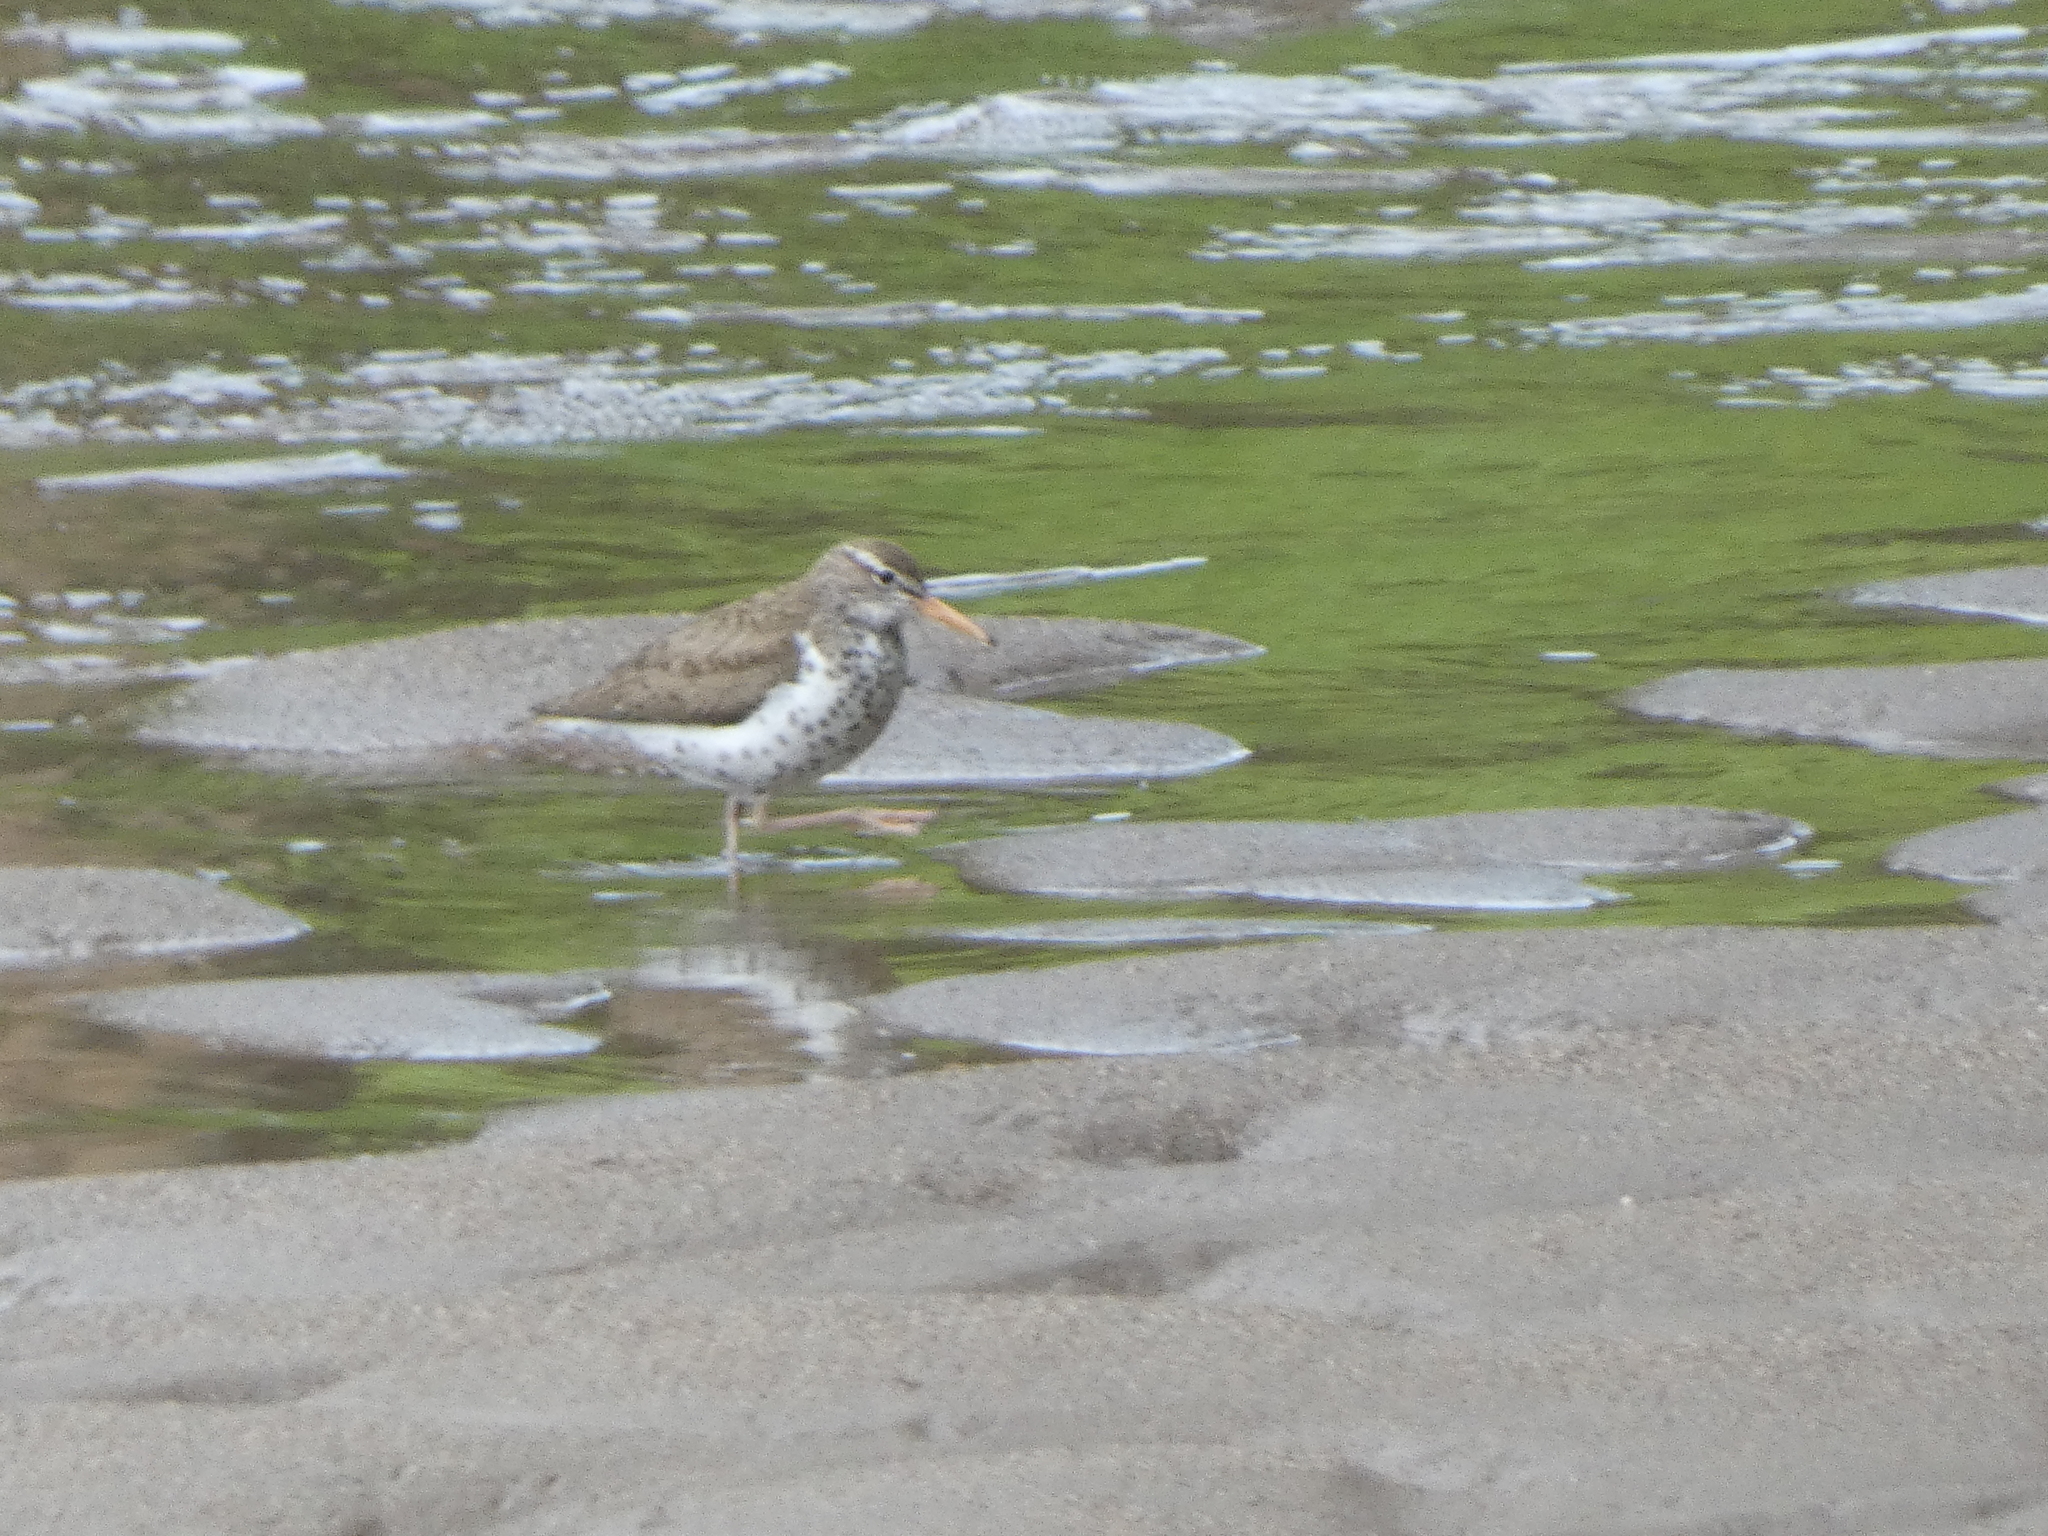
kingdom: Animalia
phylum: Chordata
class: Aves
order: Charadriiformes
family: Scolopacidae
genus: Actitis
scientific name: Actitis macularius
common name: Spotted sandpiper
